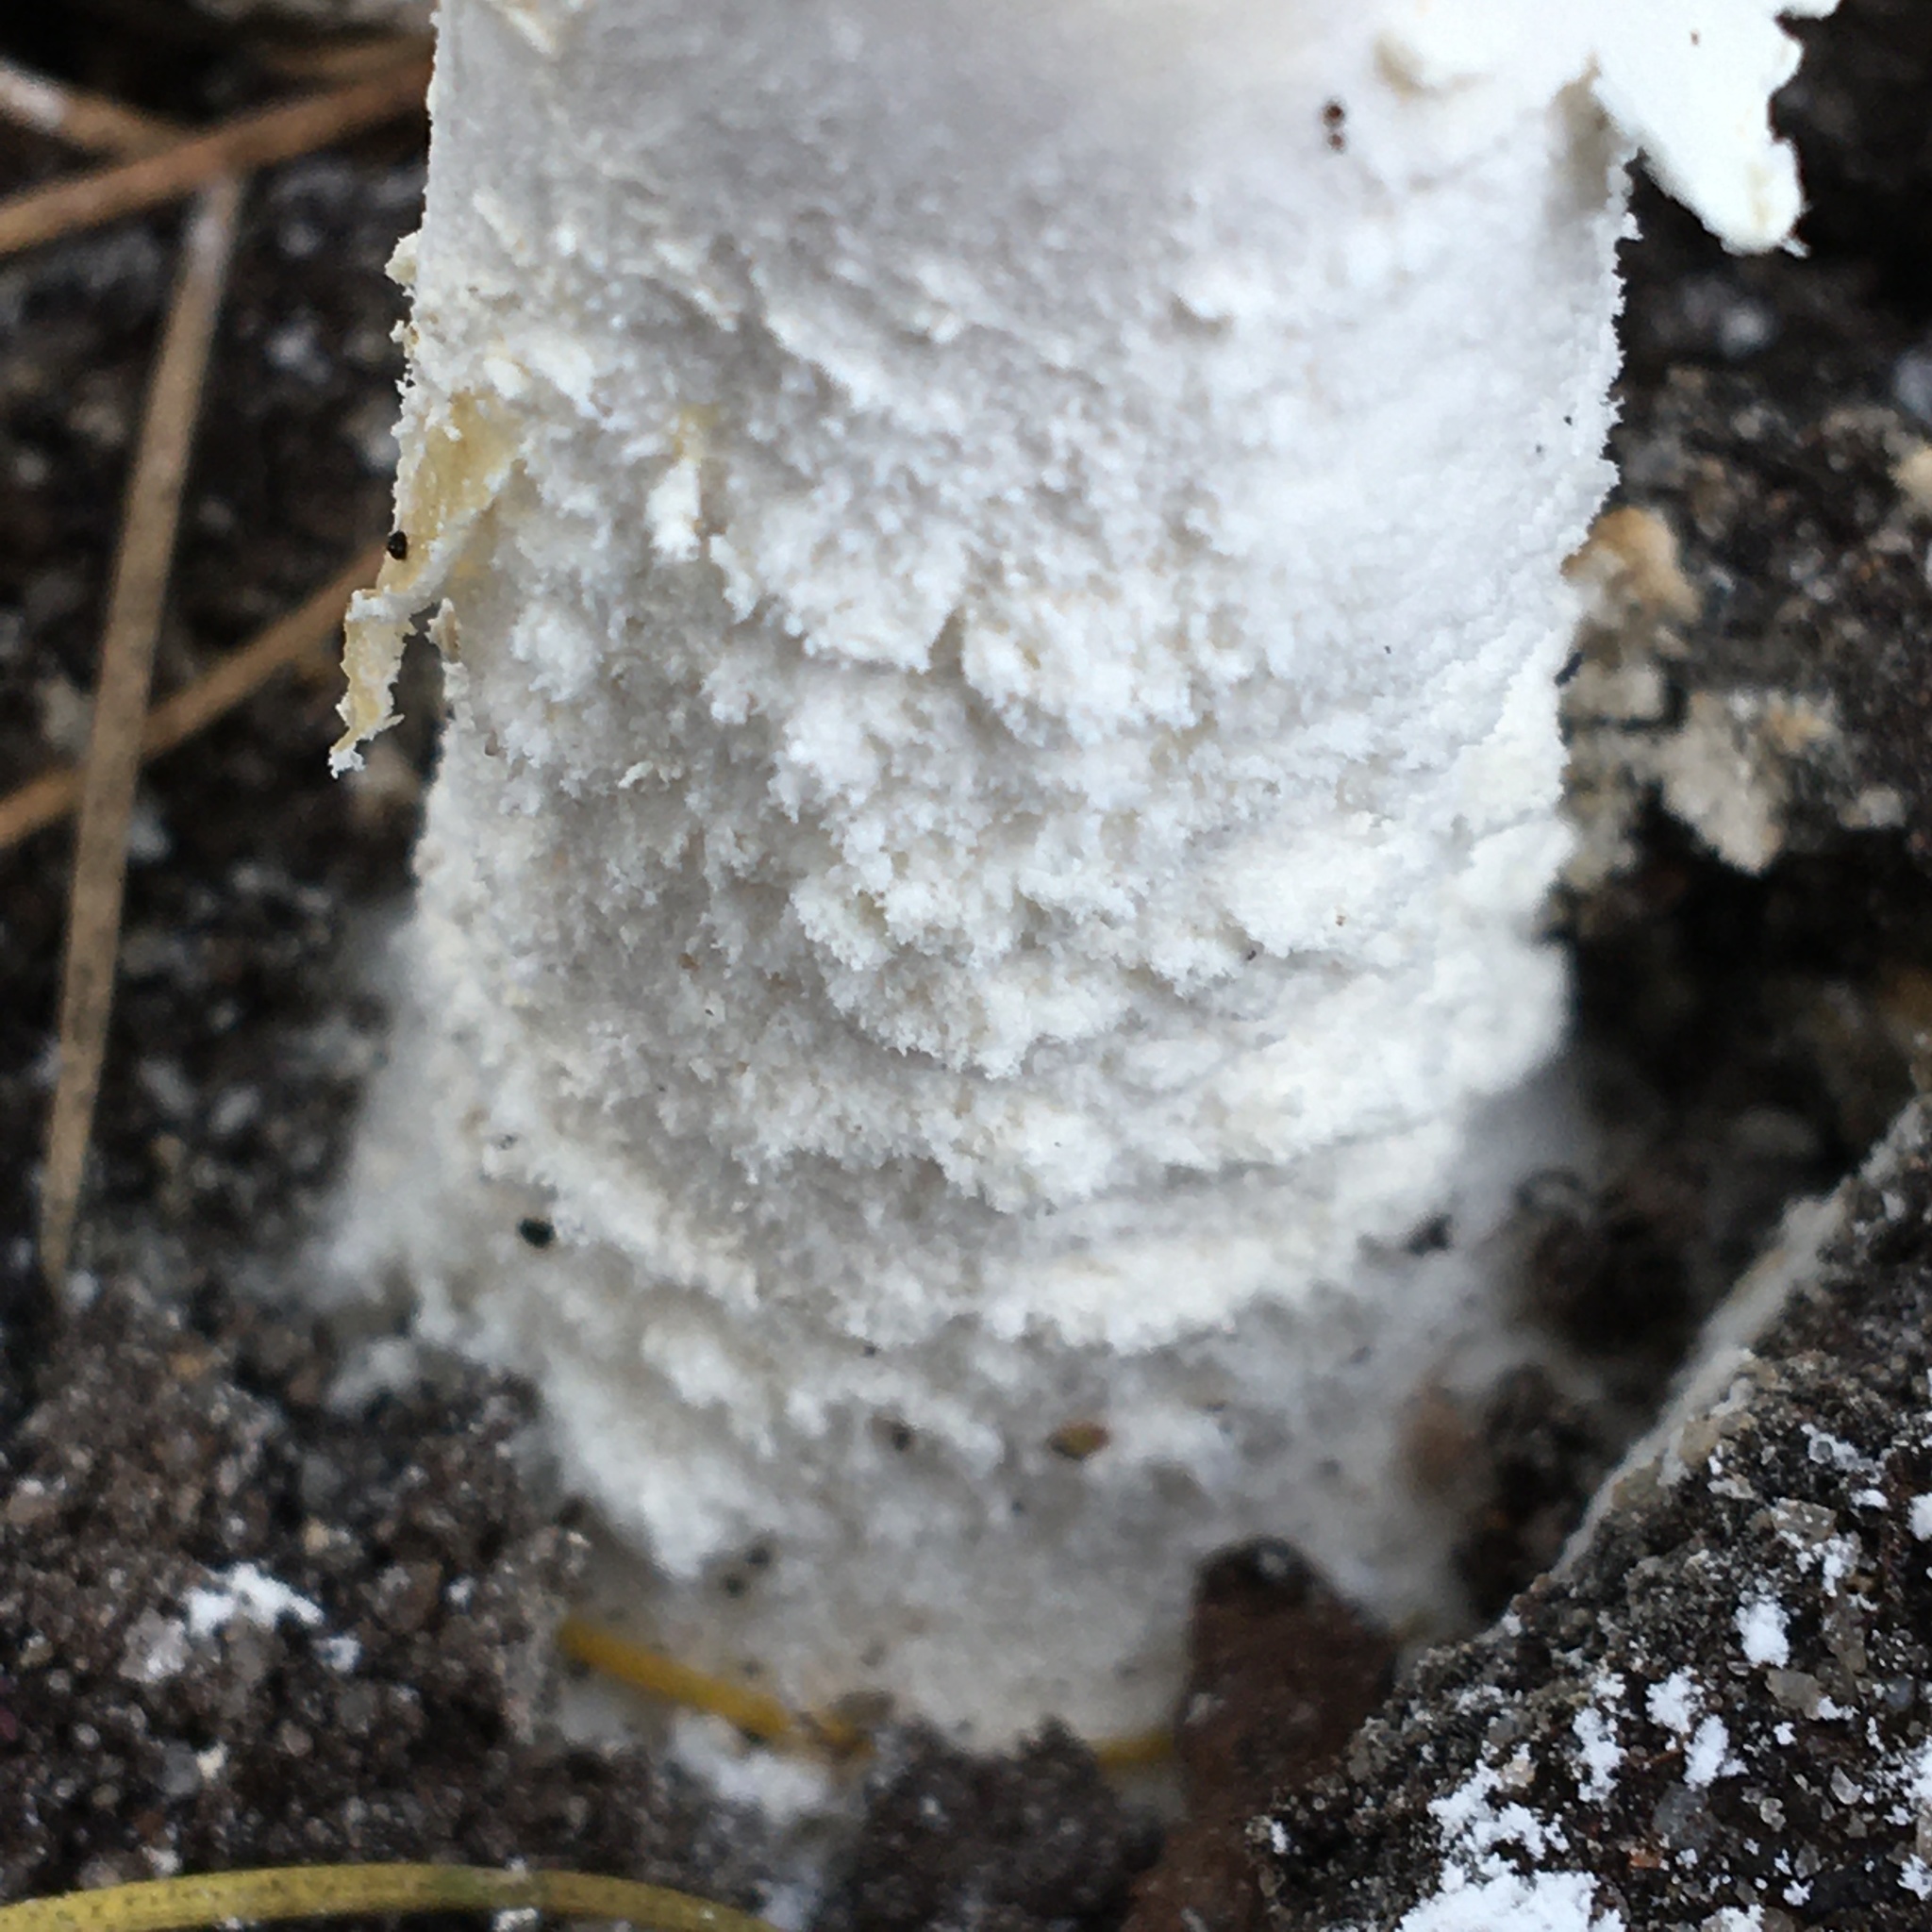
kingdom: Fungi
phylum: Basidiomycota
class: Agaricomycetes
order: Agaricales
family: Amanitaceae
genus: Amanita
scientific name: Amanita farinacea
